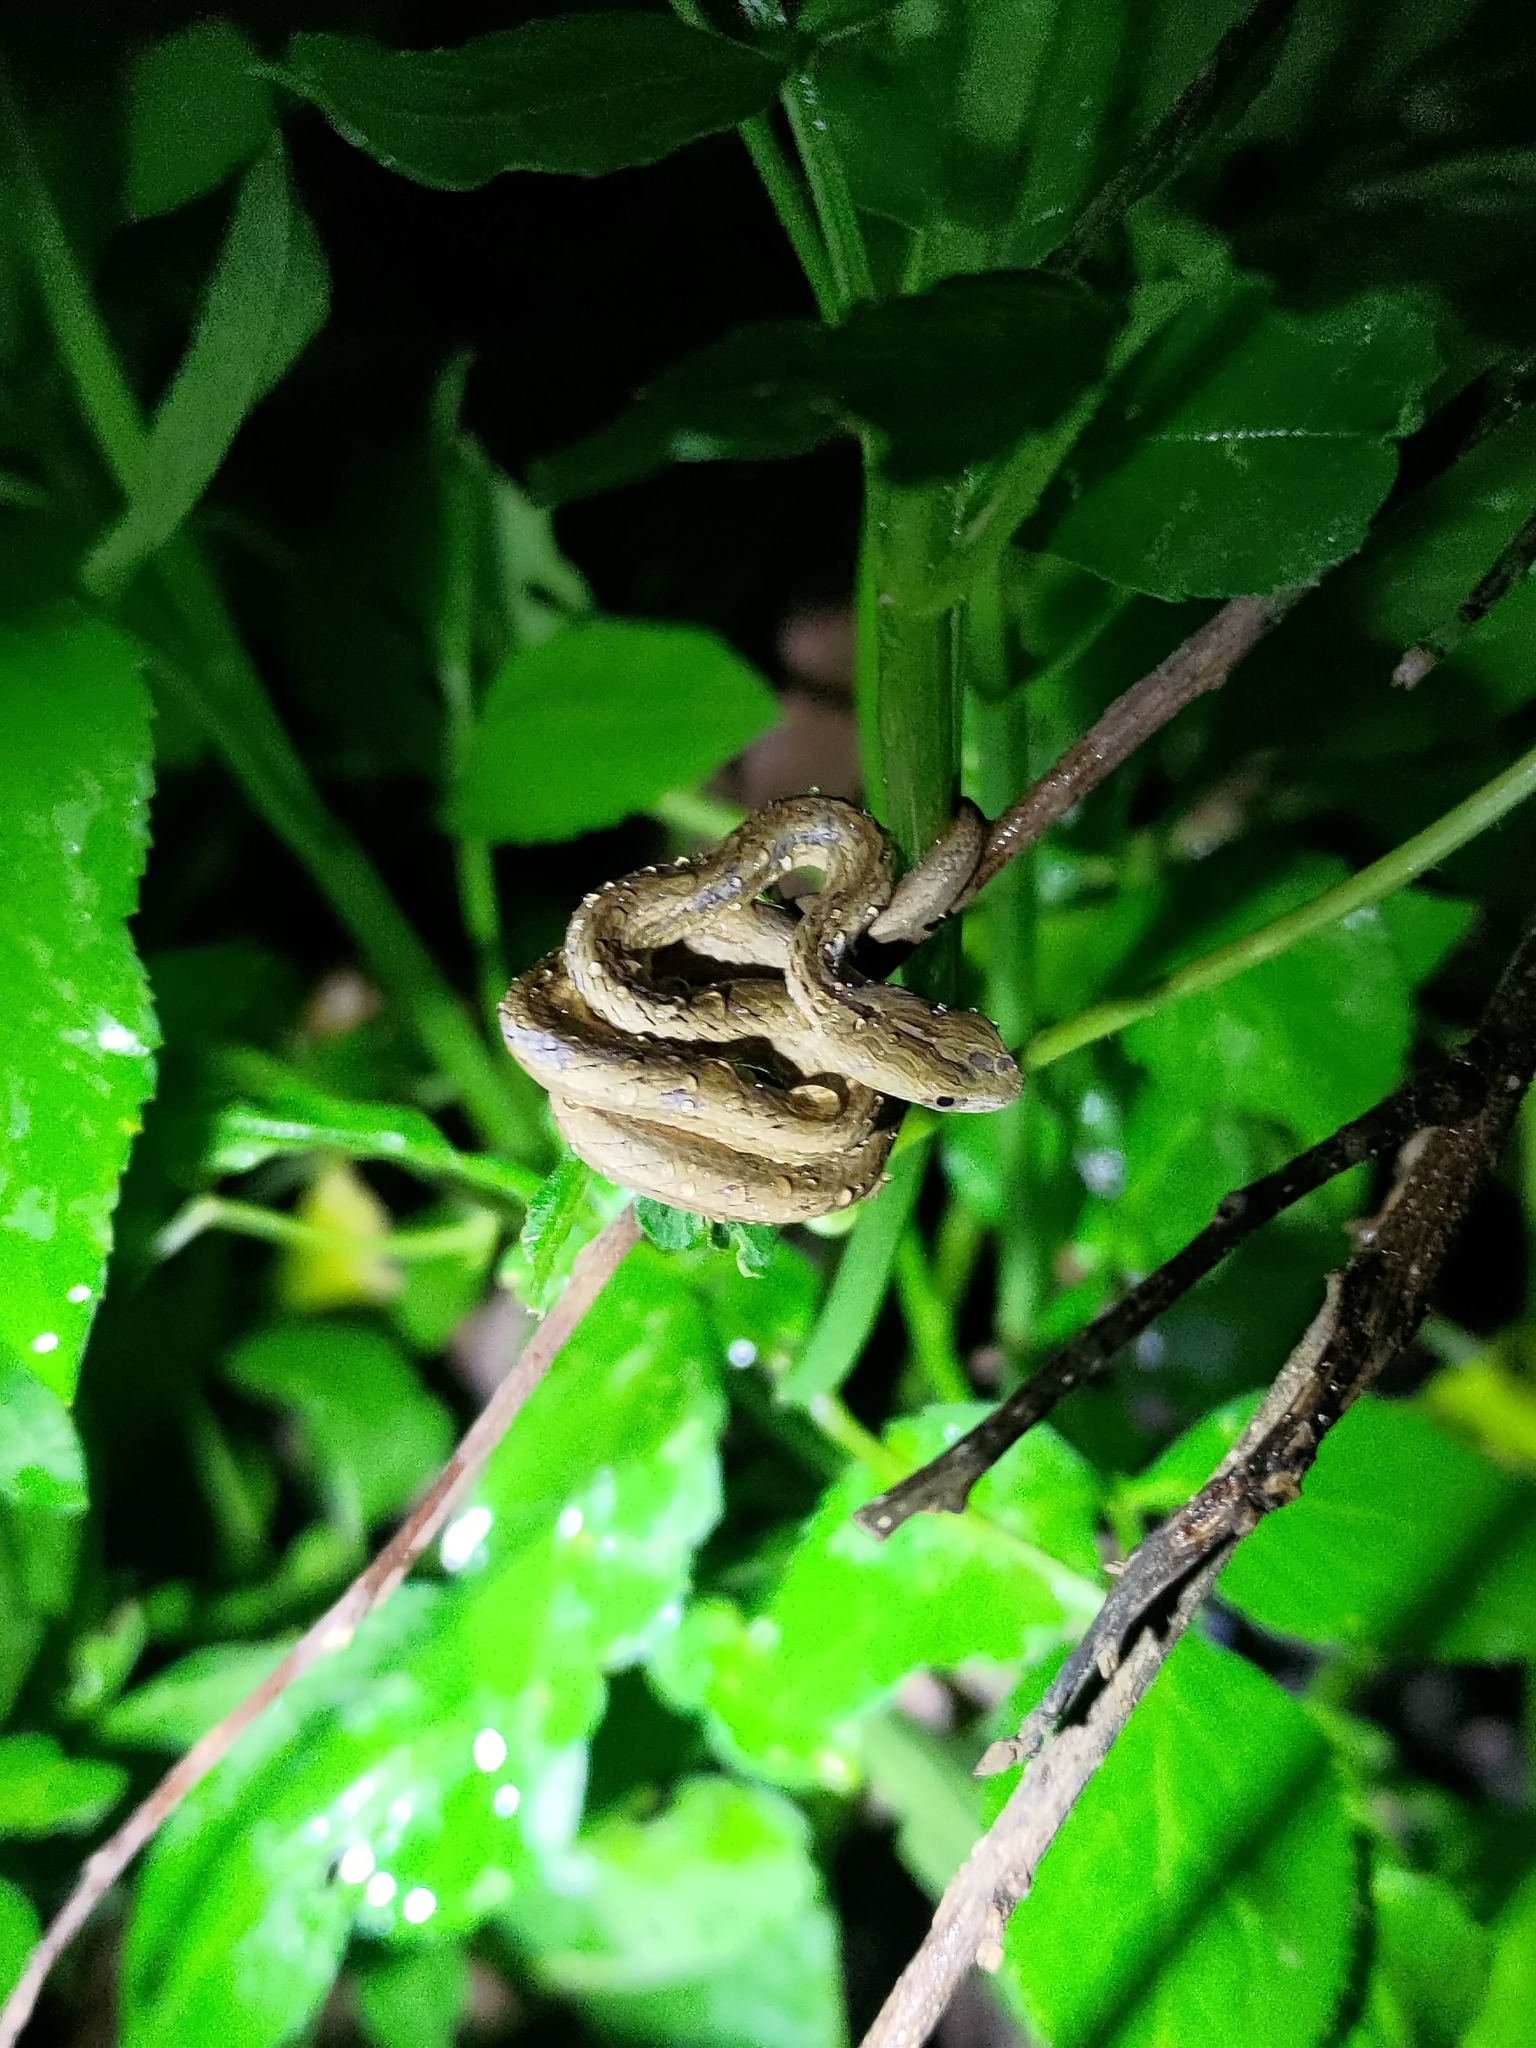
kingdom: Animalia
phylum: Chordata
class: Squamata
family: Pseudaspididae
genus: Psammodynastes
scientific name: Psammodynastes pulverulentus
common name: Common mock viper
